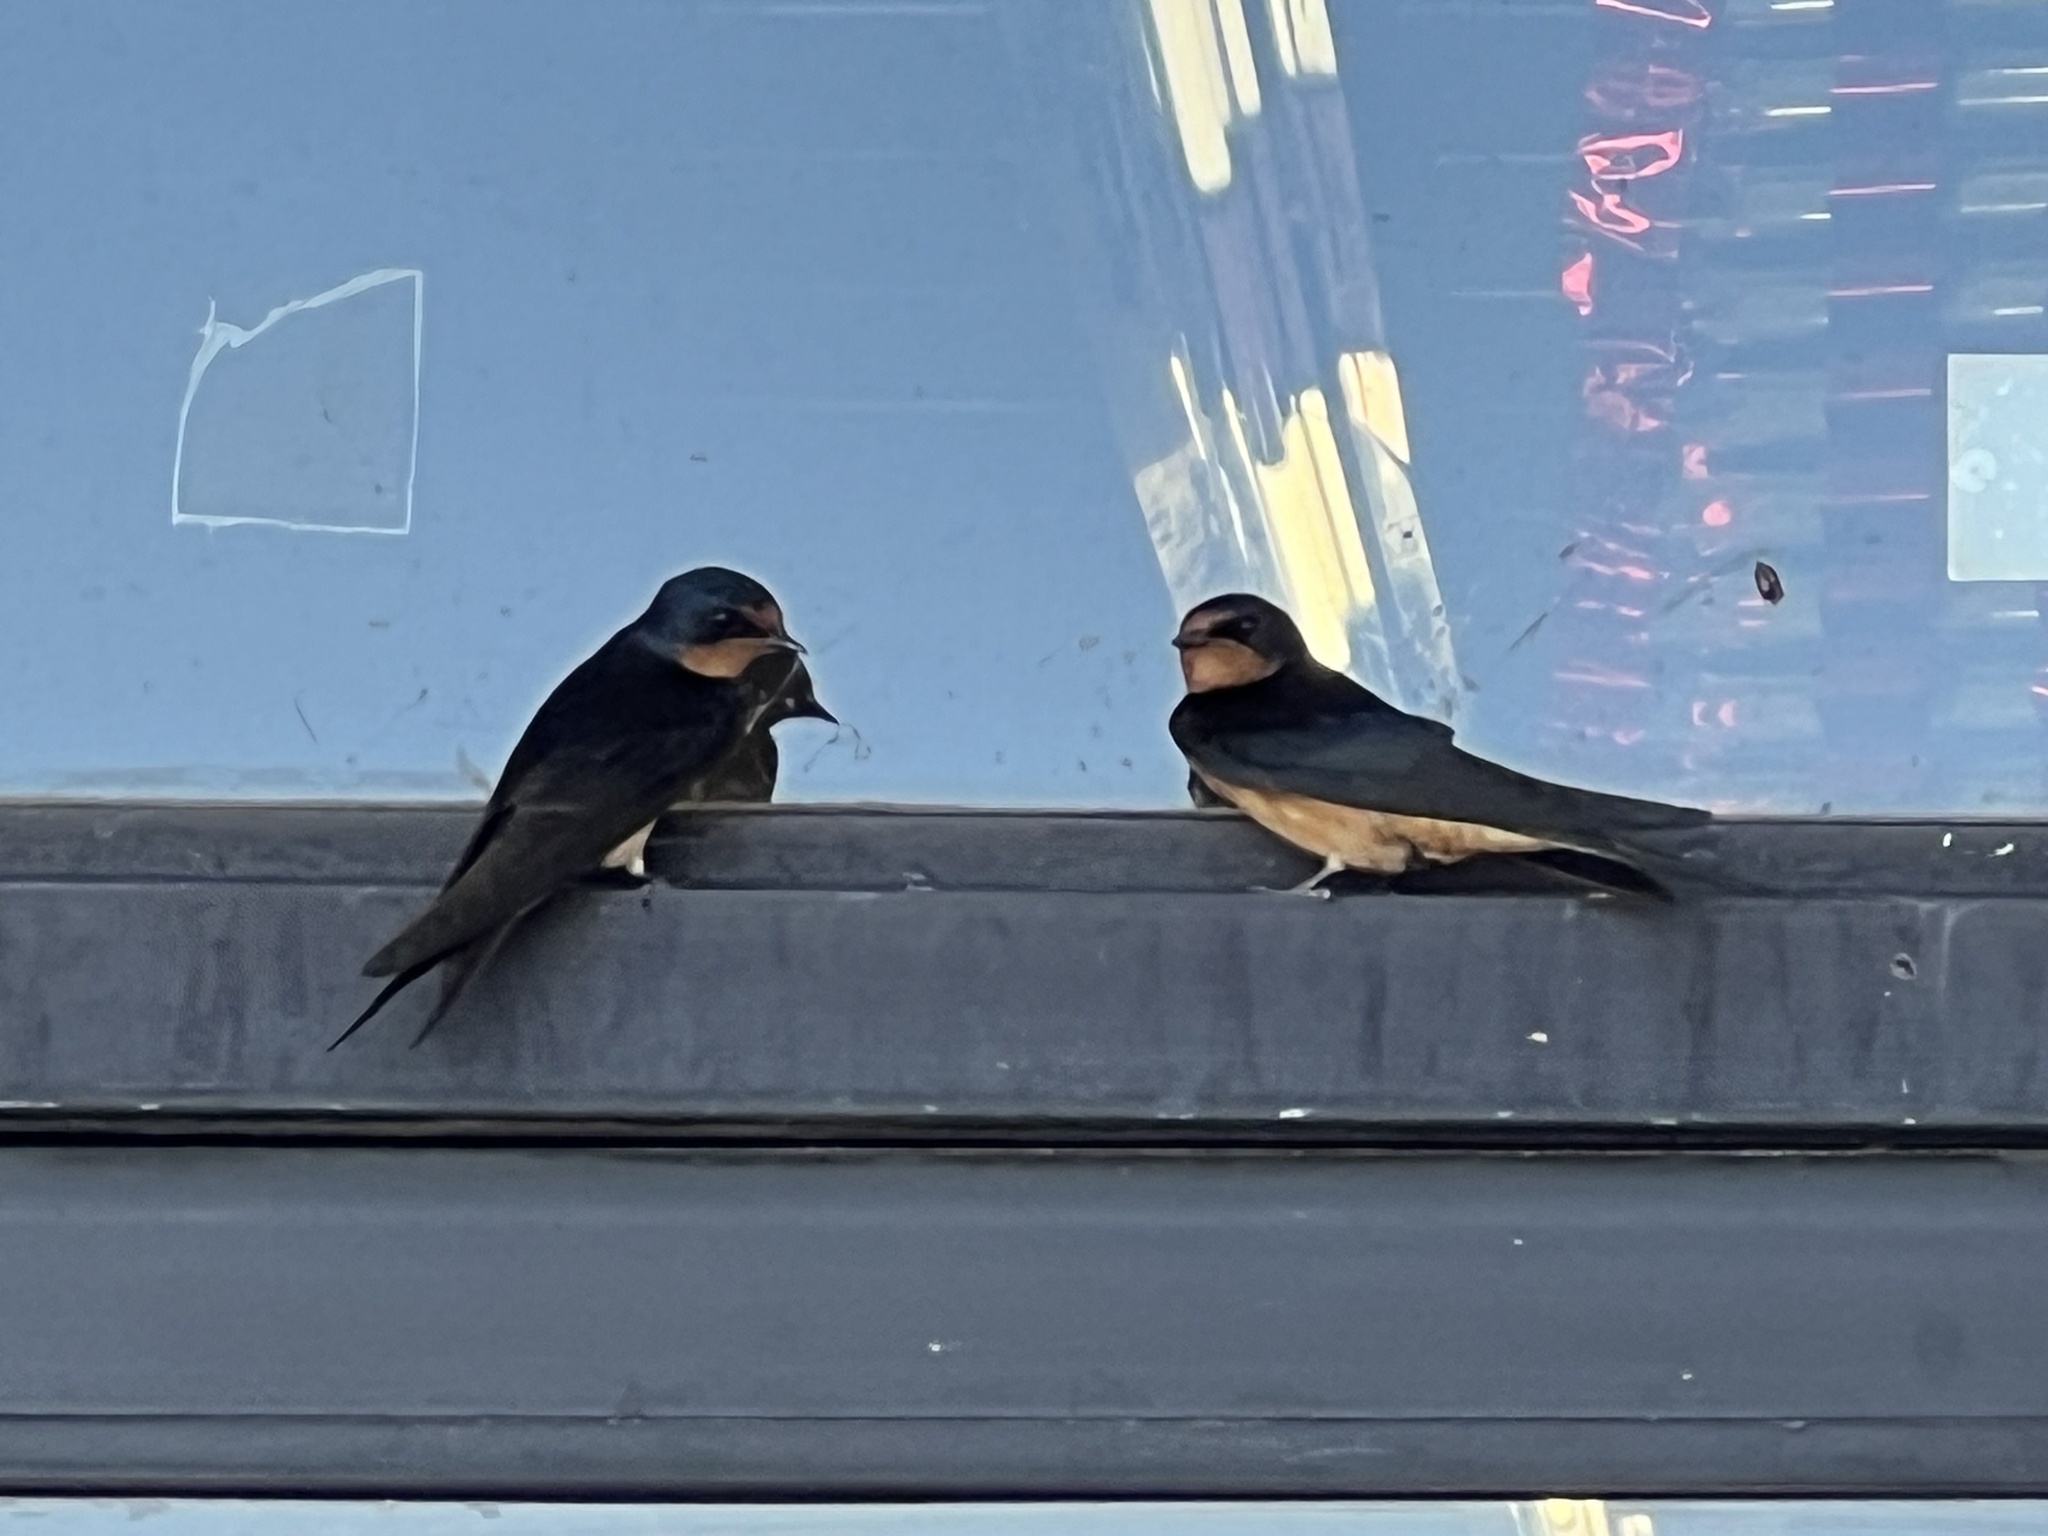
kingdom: Animalia
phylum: Chordata
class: Aves
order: Passeriformes
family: Hirundinidae
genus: Hirundo
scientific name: Hirundo rustica
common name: Barn swallow
